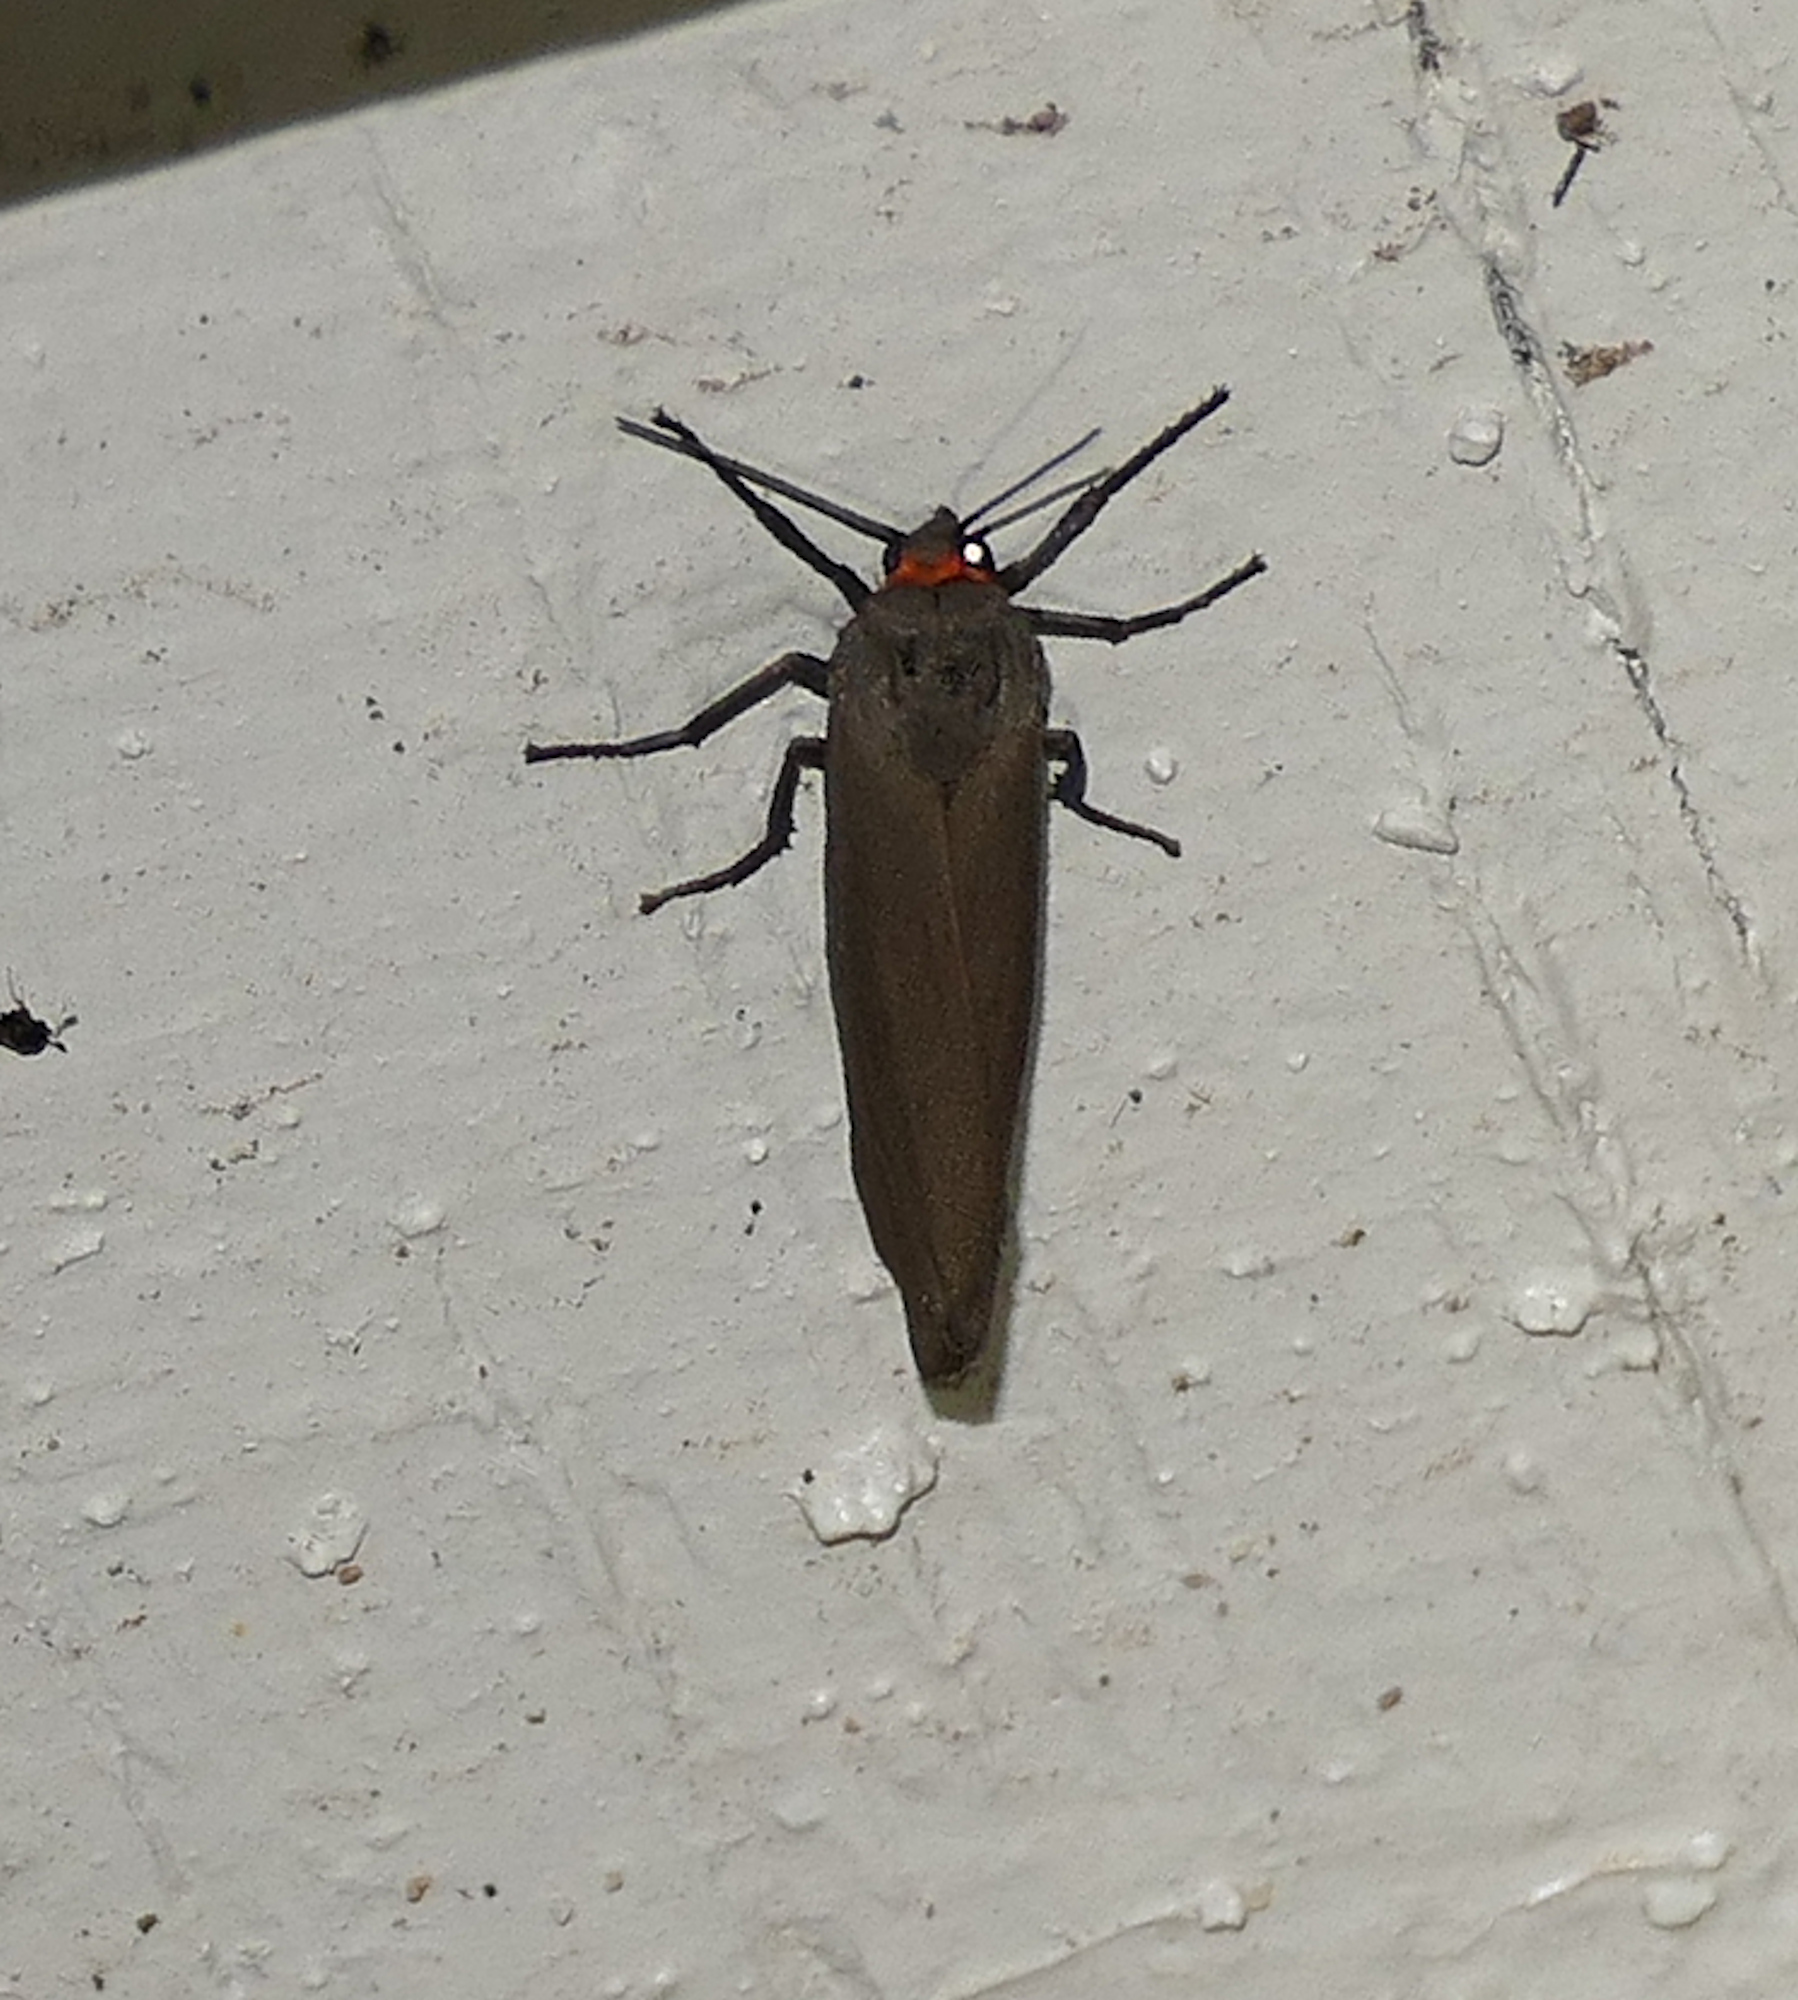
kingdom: Animalia
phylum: Arthropoda
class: Insecta
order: Lepidoptera
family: Erebidae
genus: Virbia
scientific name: Virbia costata
